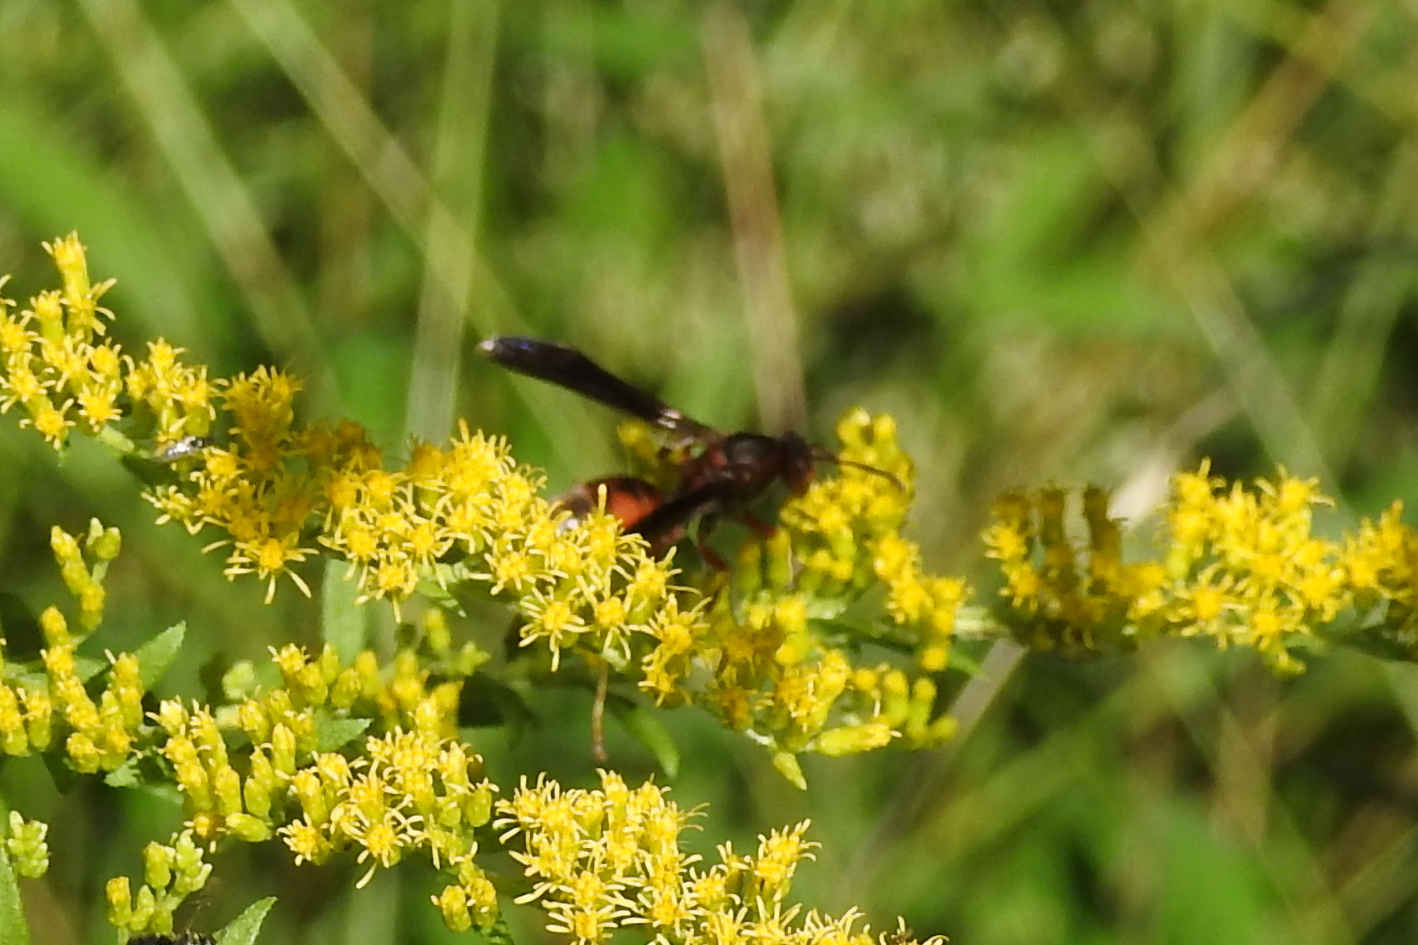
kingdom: Animalia
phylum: Arthropoda
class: Insecta
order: Hymenoptera
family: Eumenidae
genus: Polistes
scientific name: Polistes fuscatus
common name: Dark paper wasp
